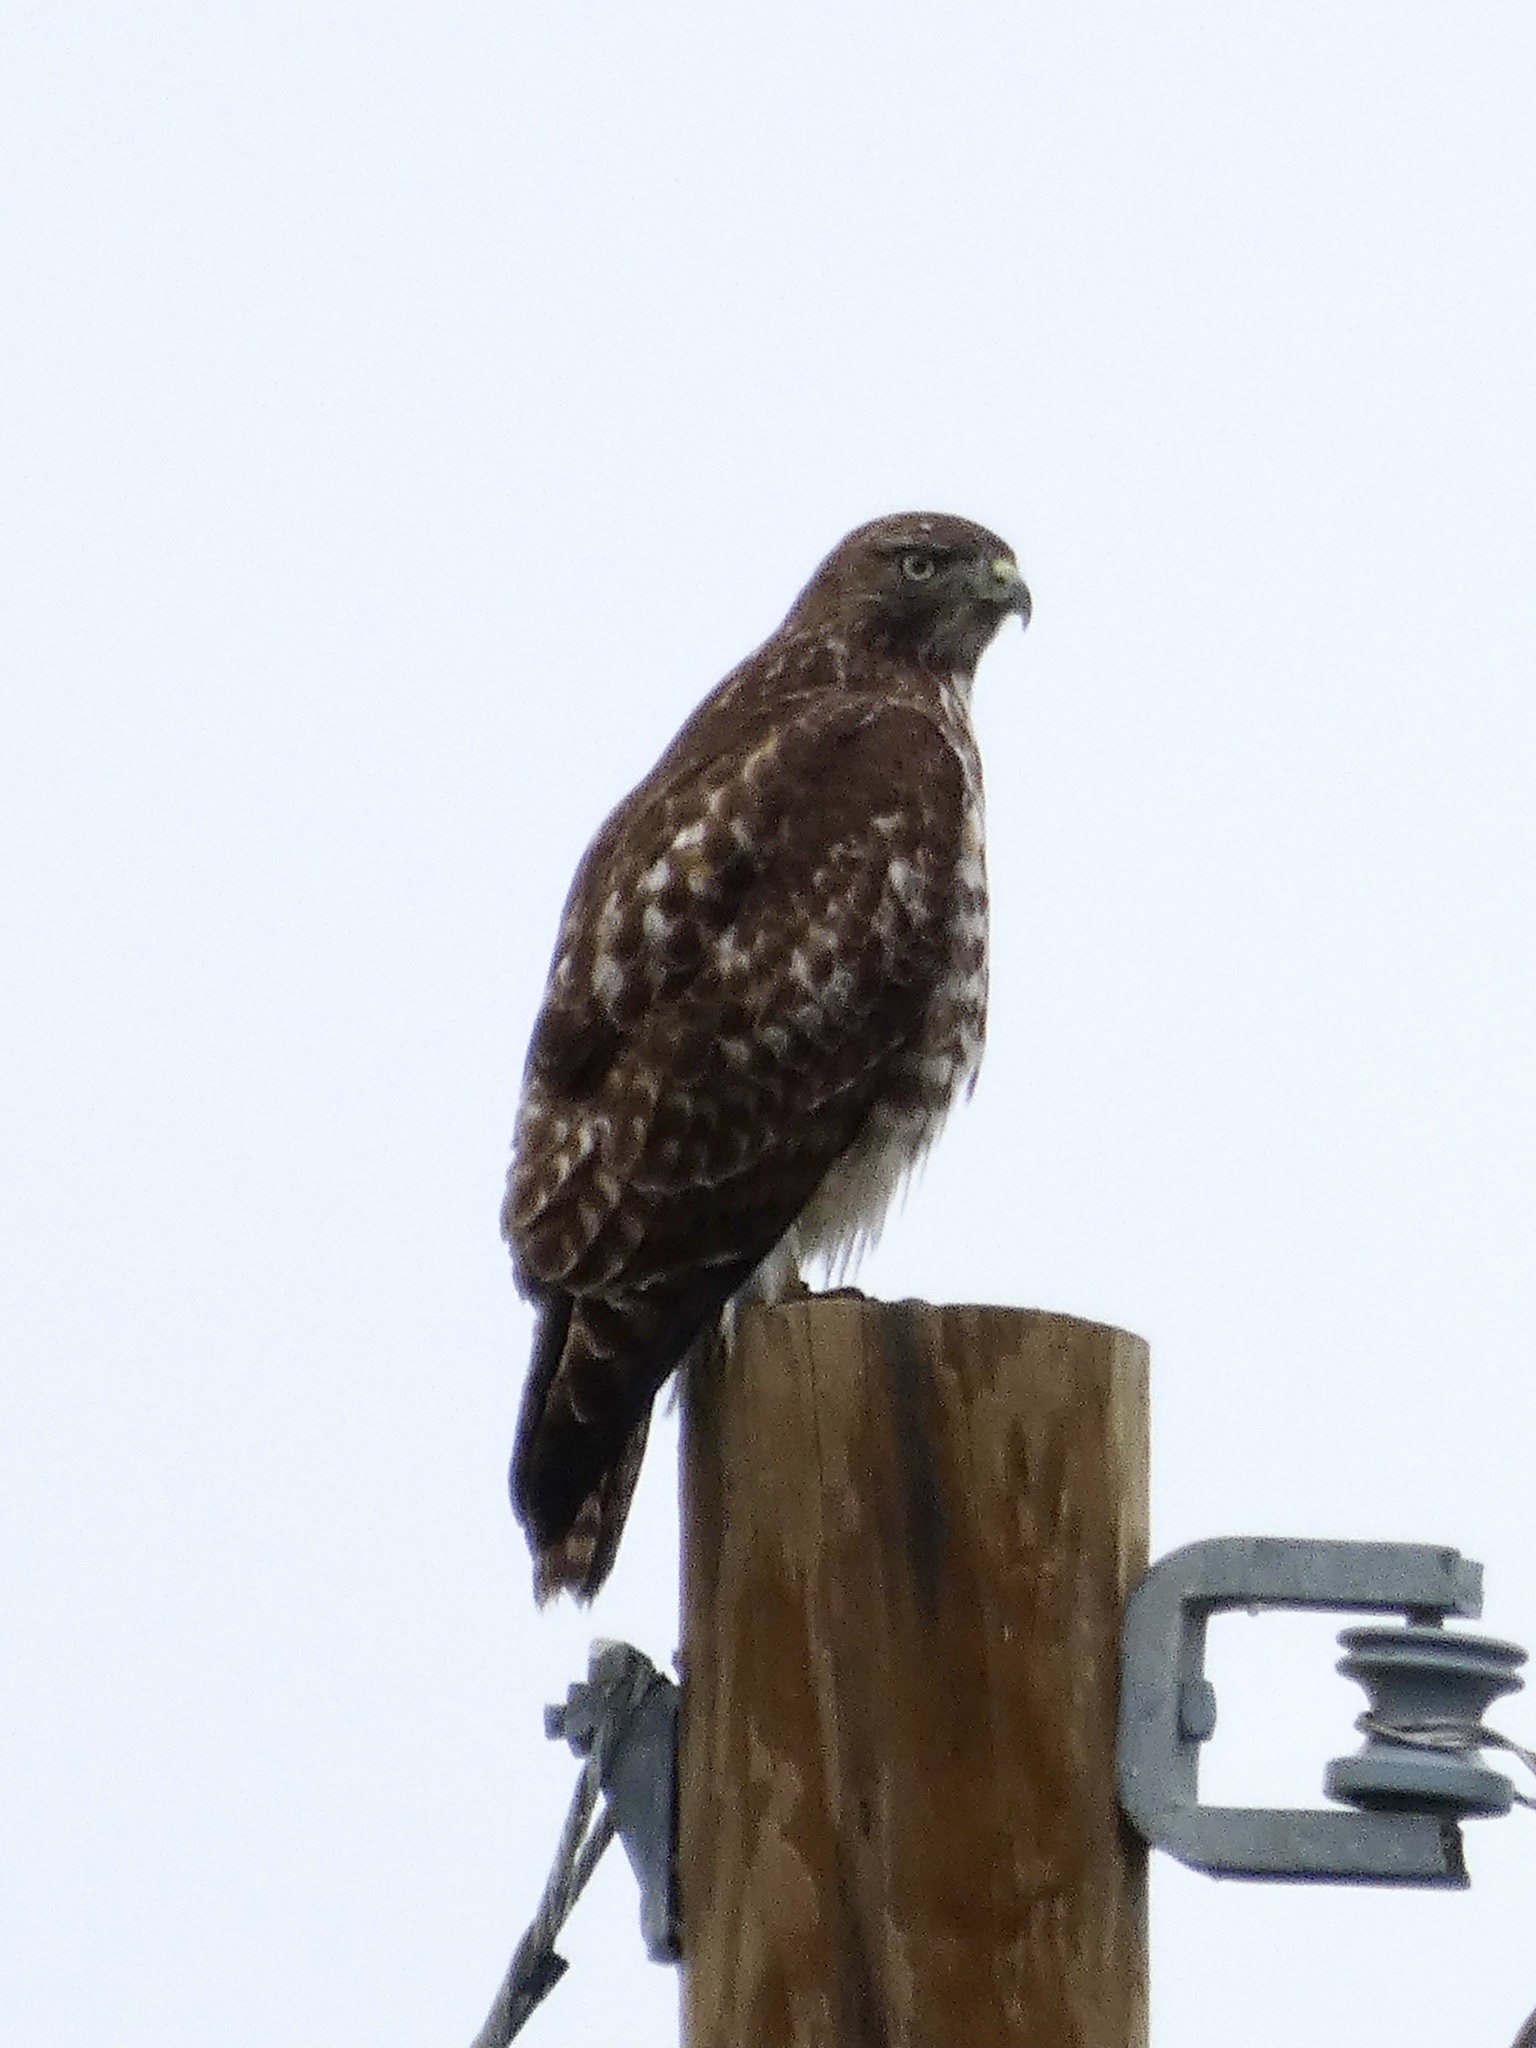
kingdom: Animalia
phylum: Chordata
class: Aves
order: Accipitriformes
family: Accipitridae
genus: Buteo
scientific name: Buteo jamaicensis
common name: Red-tailed hawk
